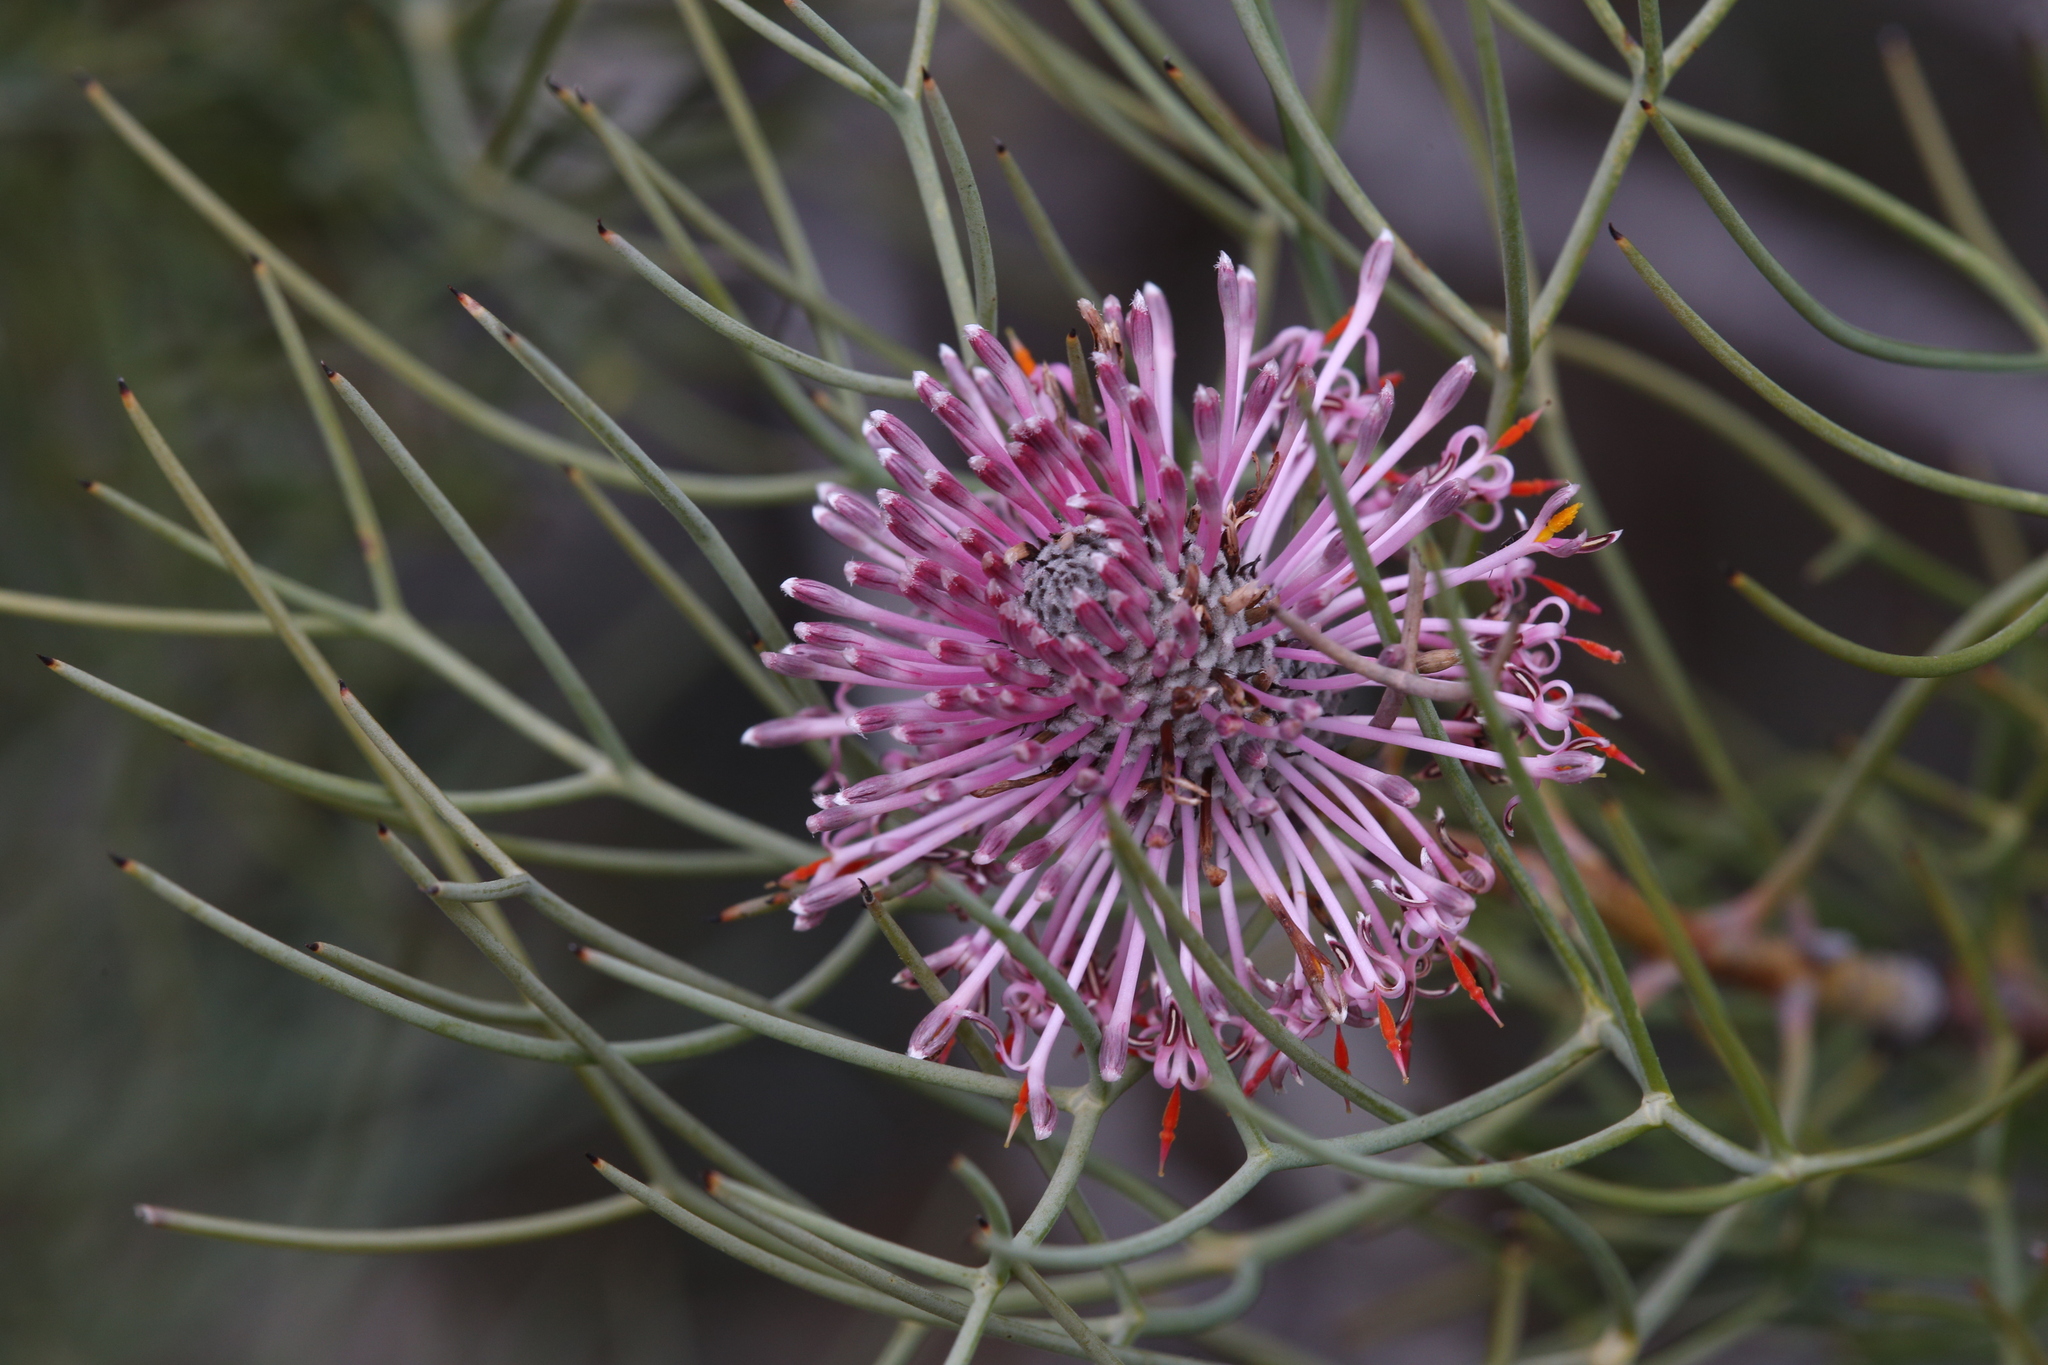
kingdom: Plantae
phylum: Tracheophyta
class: Magnoliopsida
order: Proteales
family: Proteaceae
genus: Isopogon
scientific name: Isopogon divergens
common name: Spreading-coneflower
